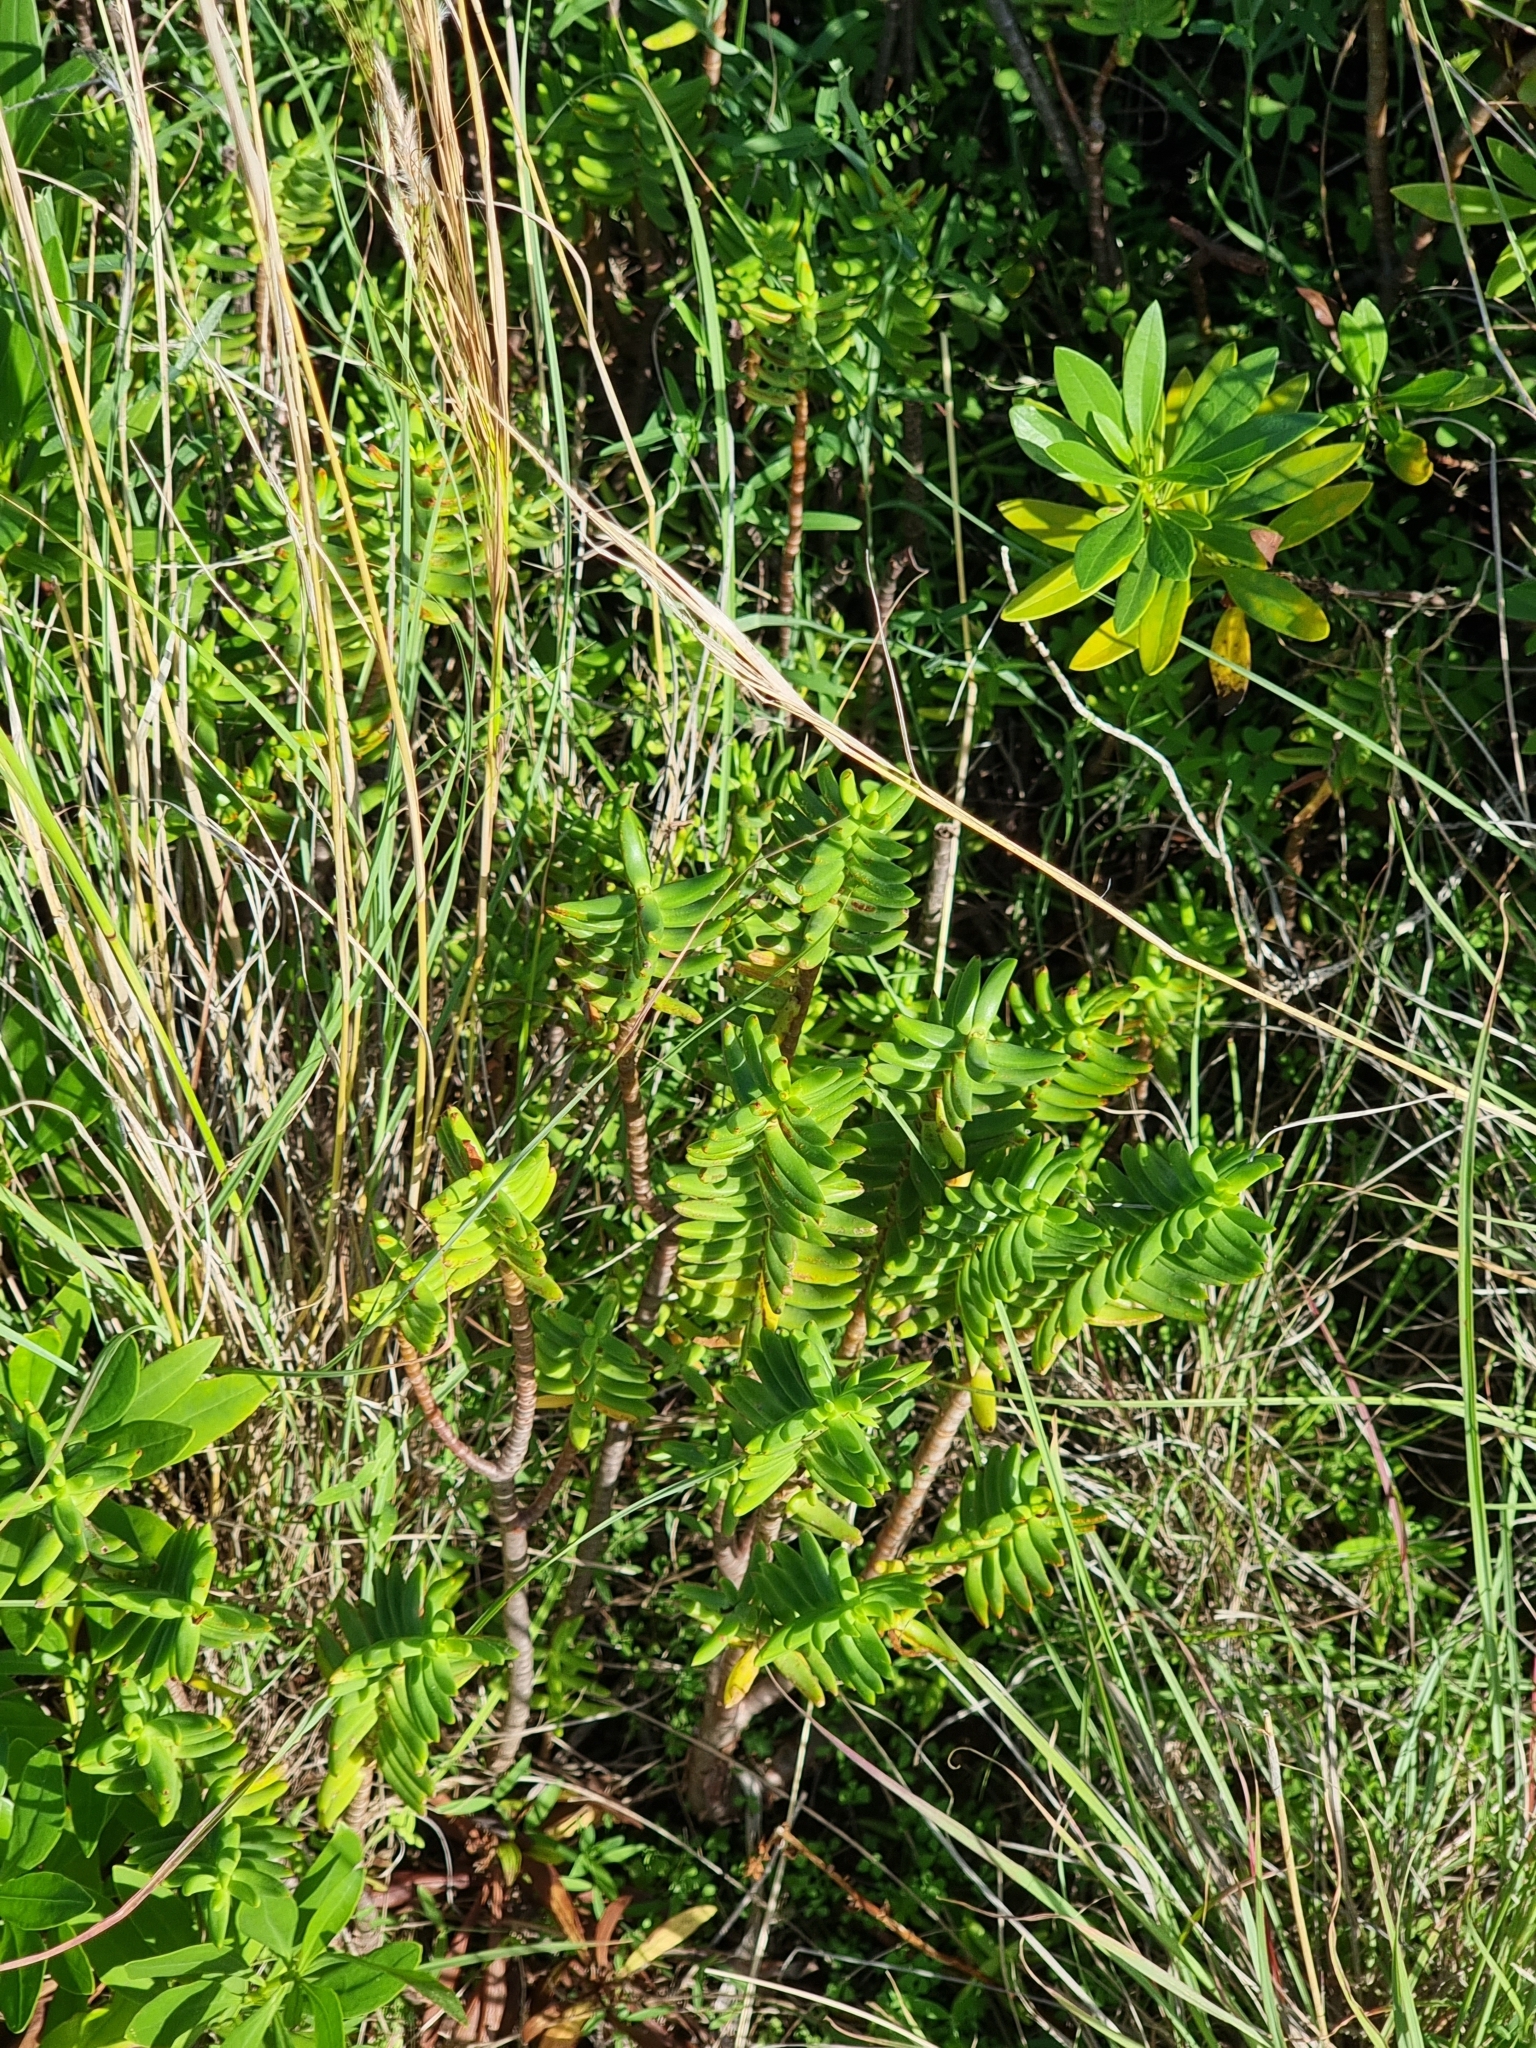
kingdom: Plantae
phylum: Tracheophyta
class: Magnoliopsida
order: Saxifragales
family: Crassulaceae
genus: Crassula
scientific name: Crassula tetragona
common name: Pygmyweed
